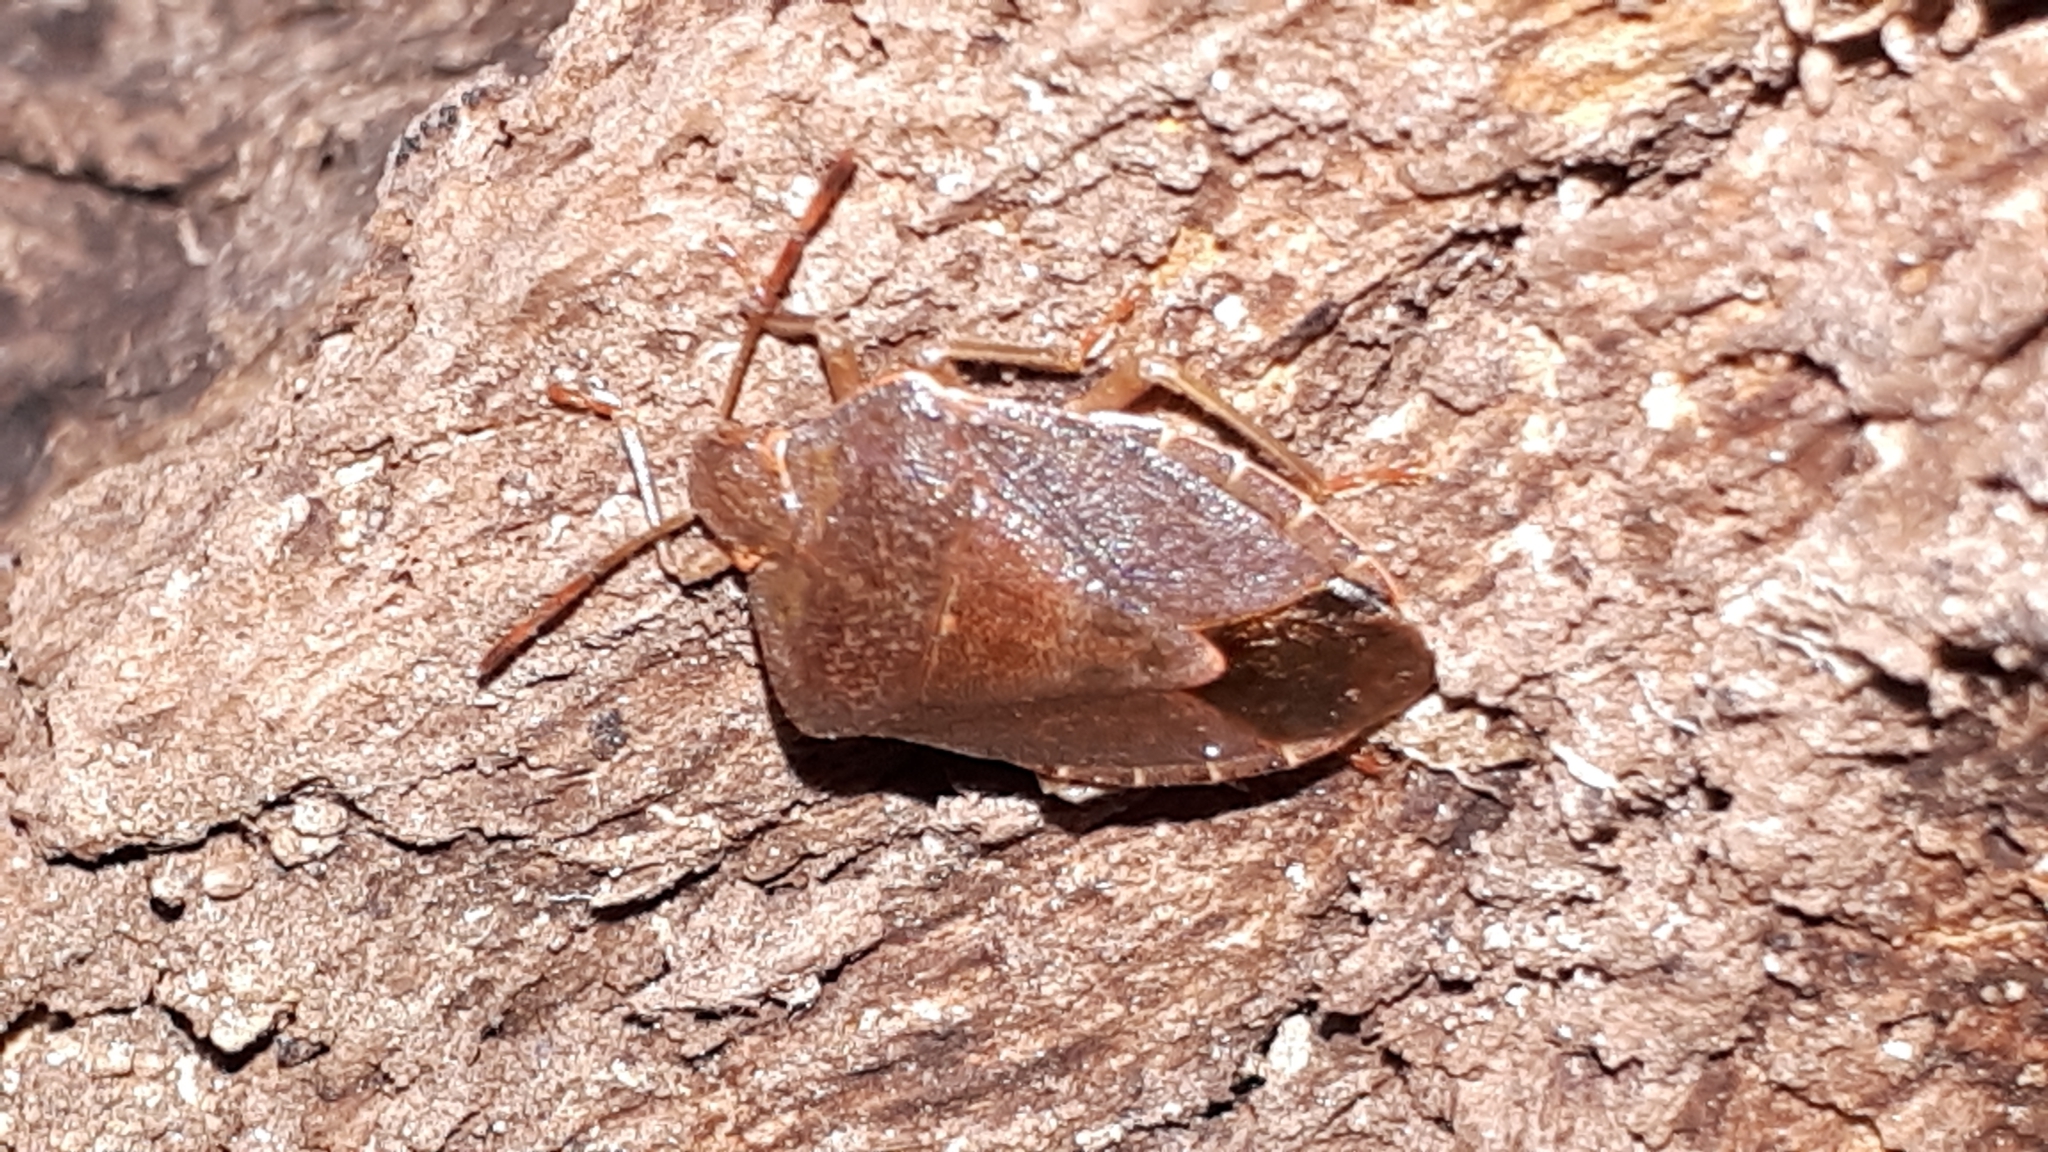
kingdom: Animalia
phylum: Arthropoda
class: Insecta
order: Hemiptera
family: Pentatomidae
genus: Palomena
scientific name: Palomena prasina
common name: Green shieldbug
